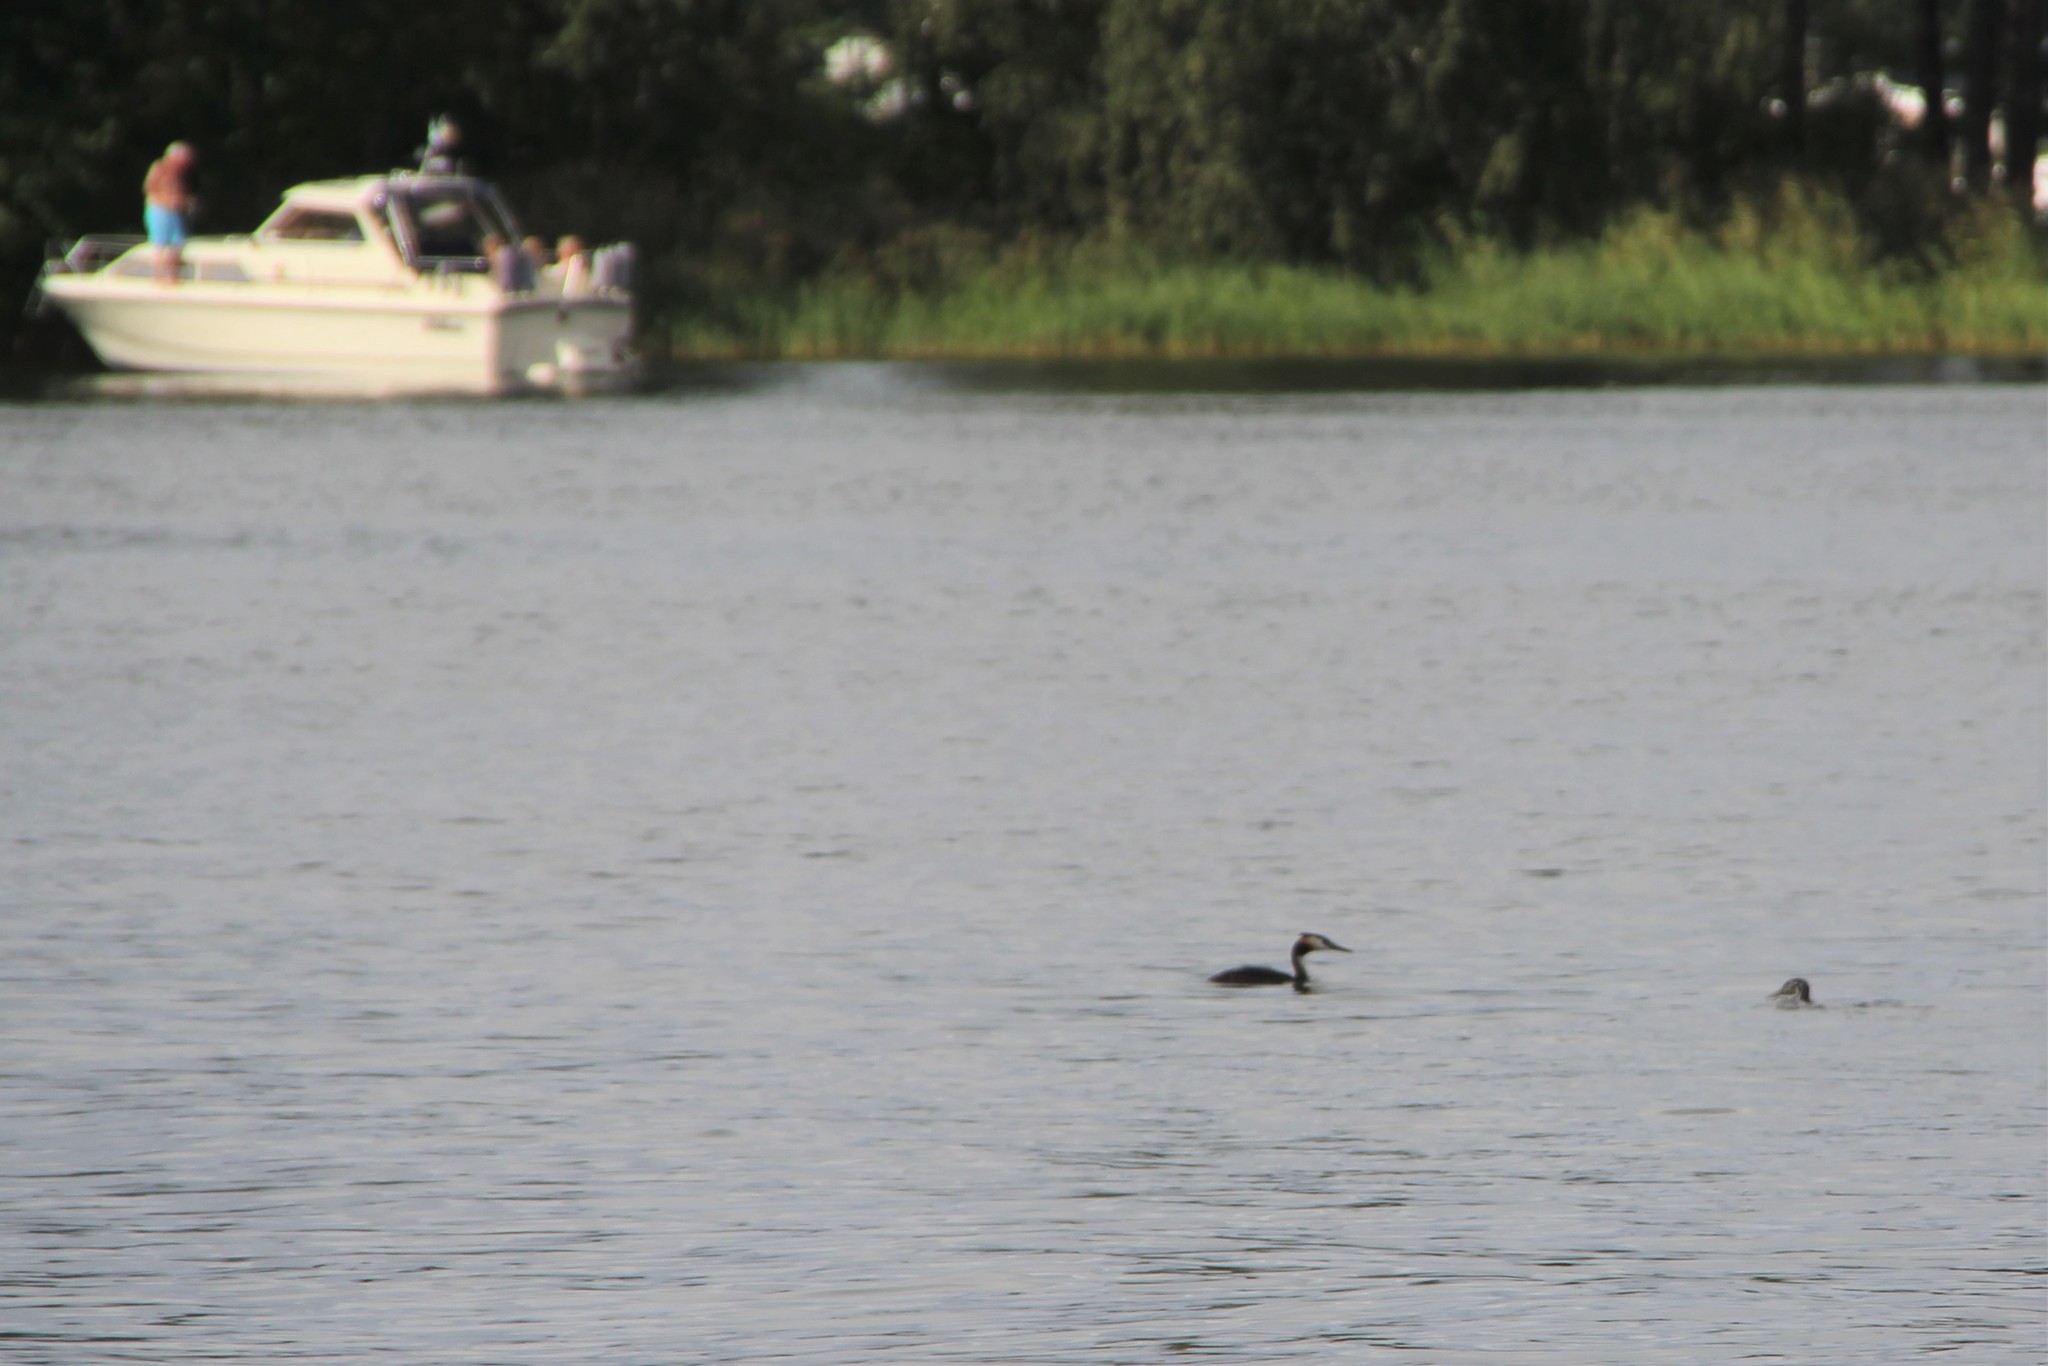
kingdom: Animalia
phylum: Chordata
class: Aves
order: Podicipediformes
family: Podicipedidae
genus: Podiceps
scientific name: Podiceps cristatus
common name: Great crested grebe
